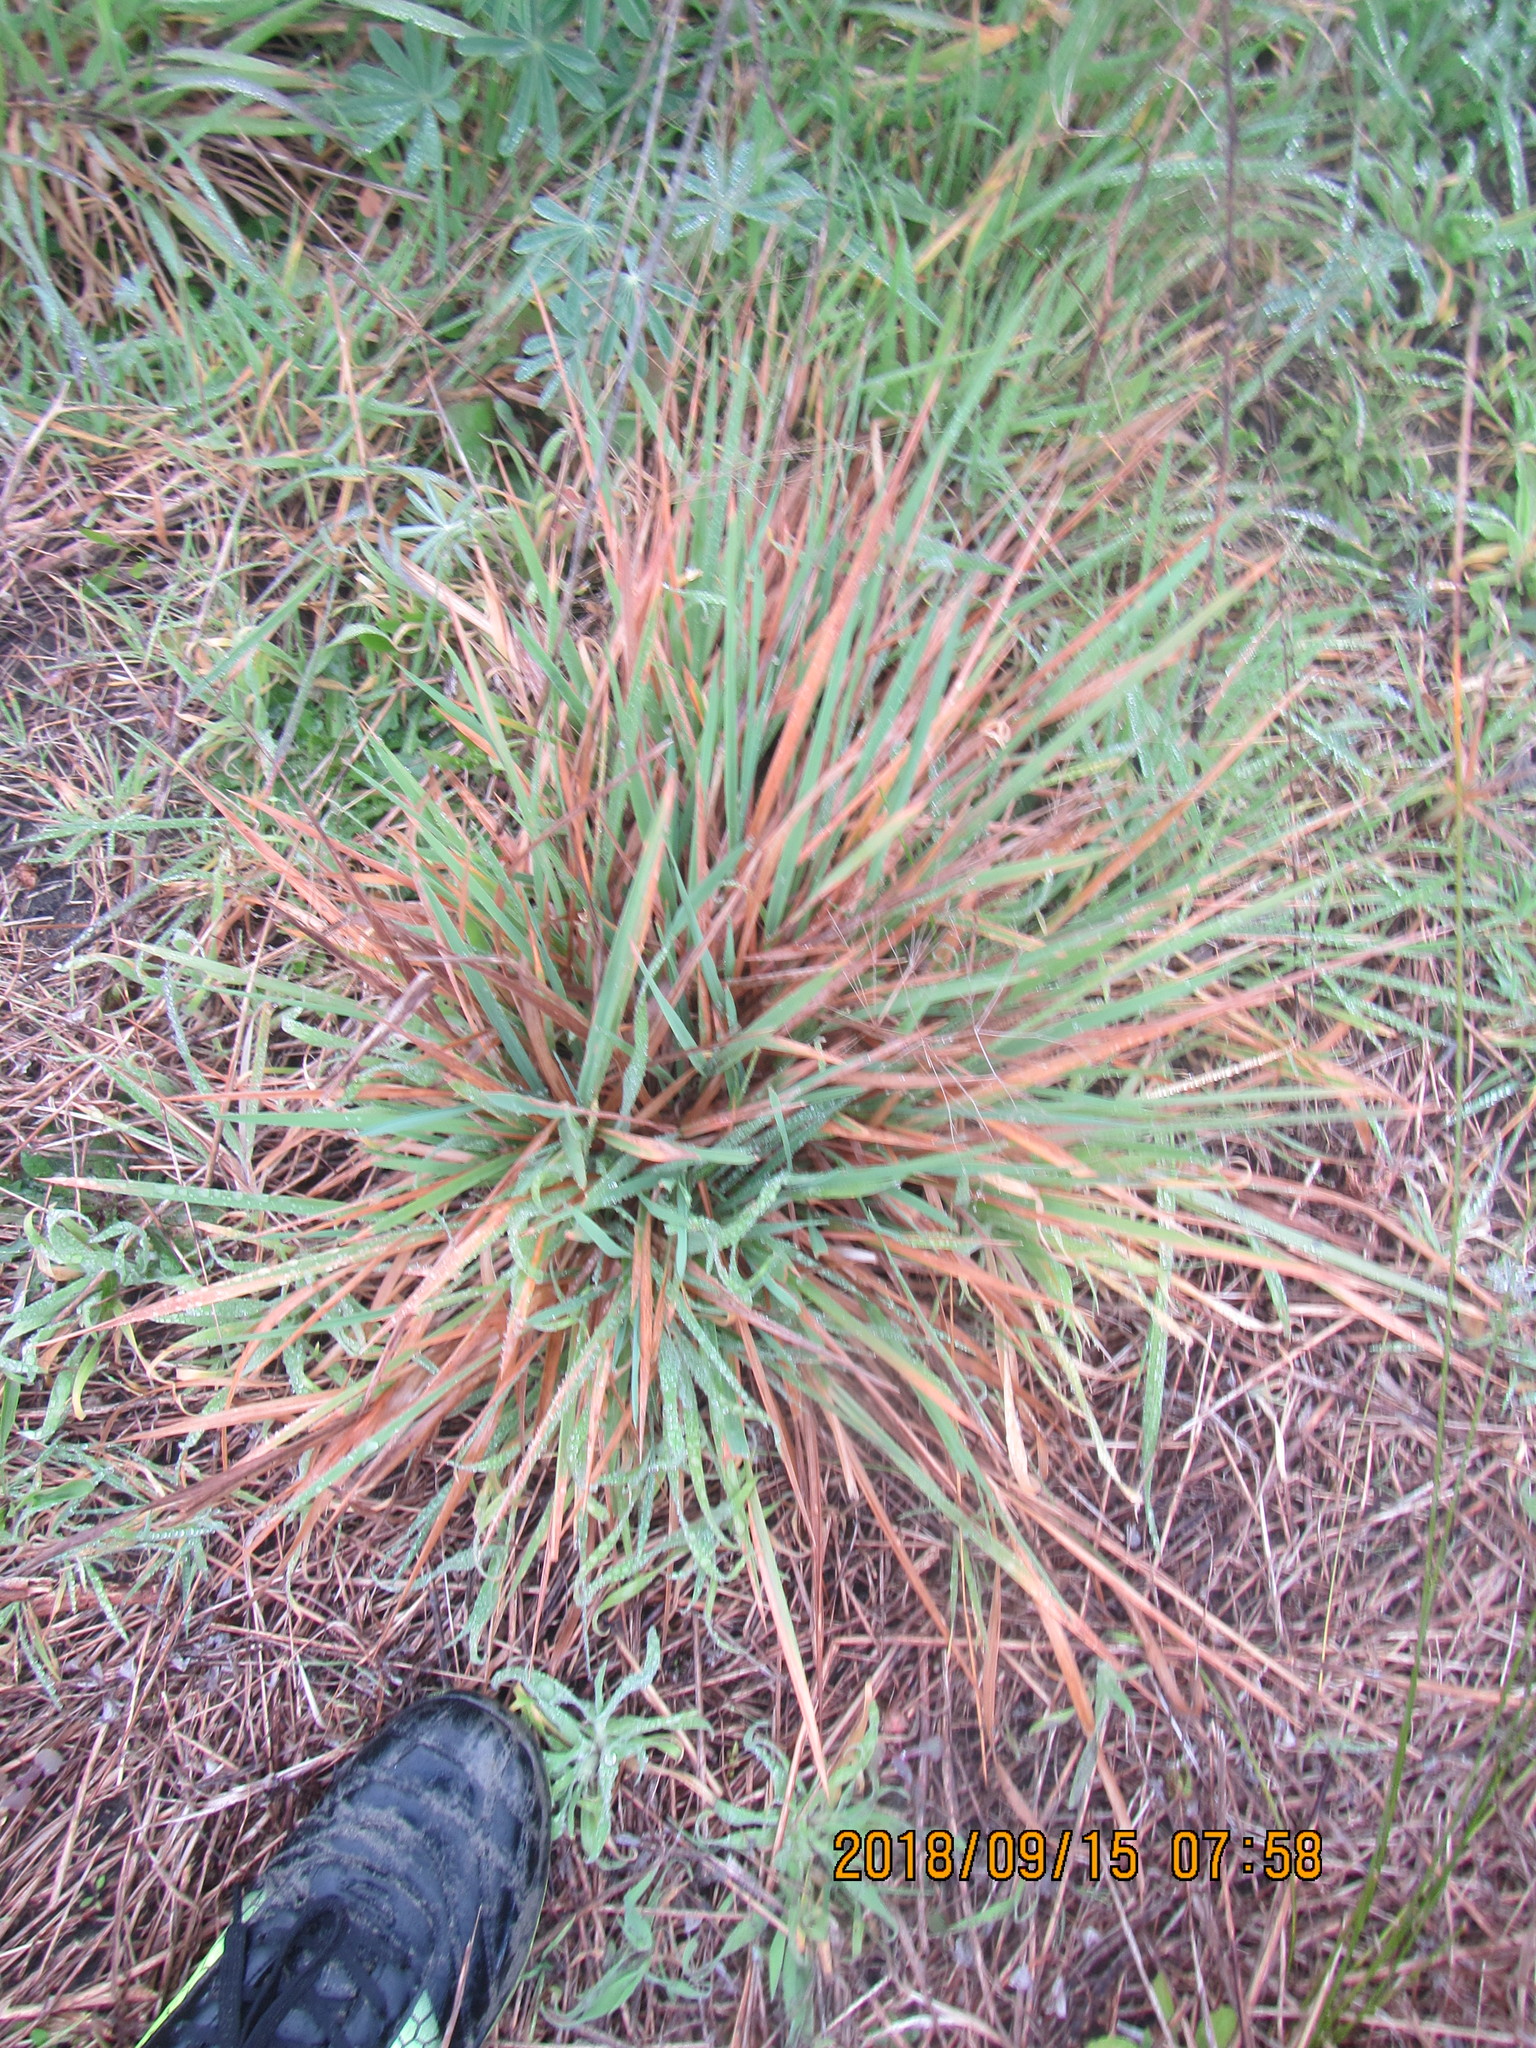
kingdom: Plantae
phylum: Tracheophyta
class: Liliopsida
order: Poales
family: Poaceae
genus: Lachnagrostis
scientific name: Lachnagrostis billardierei
